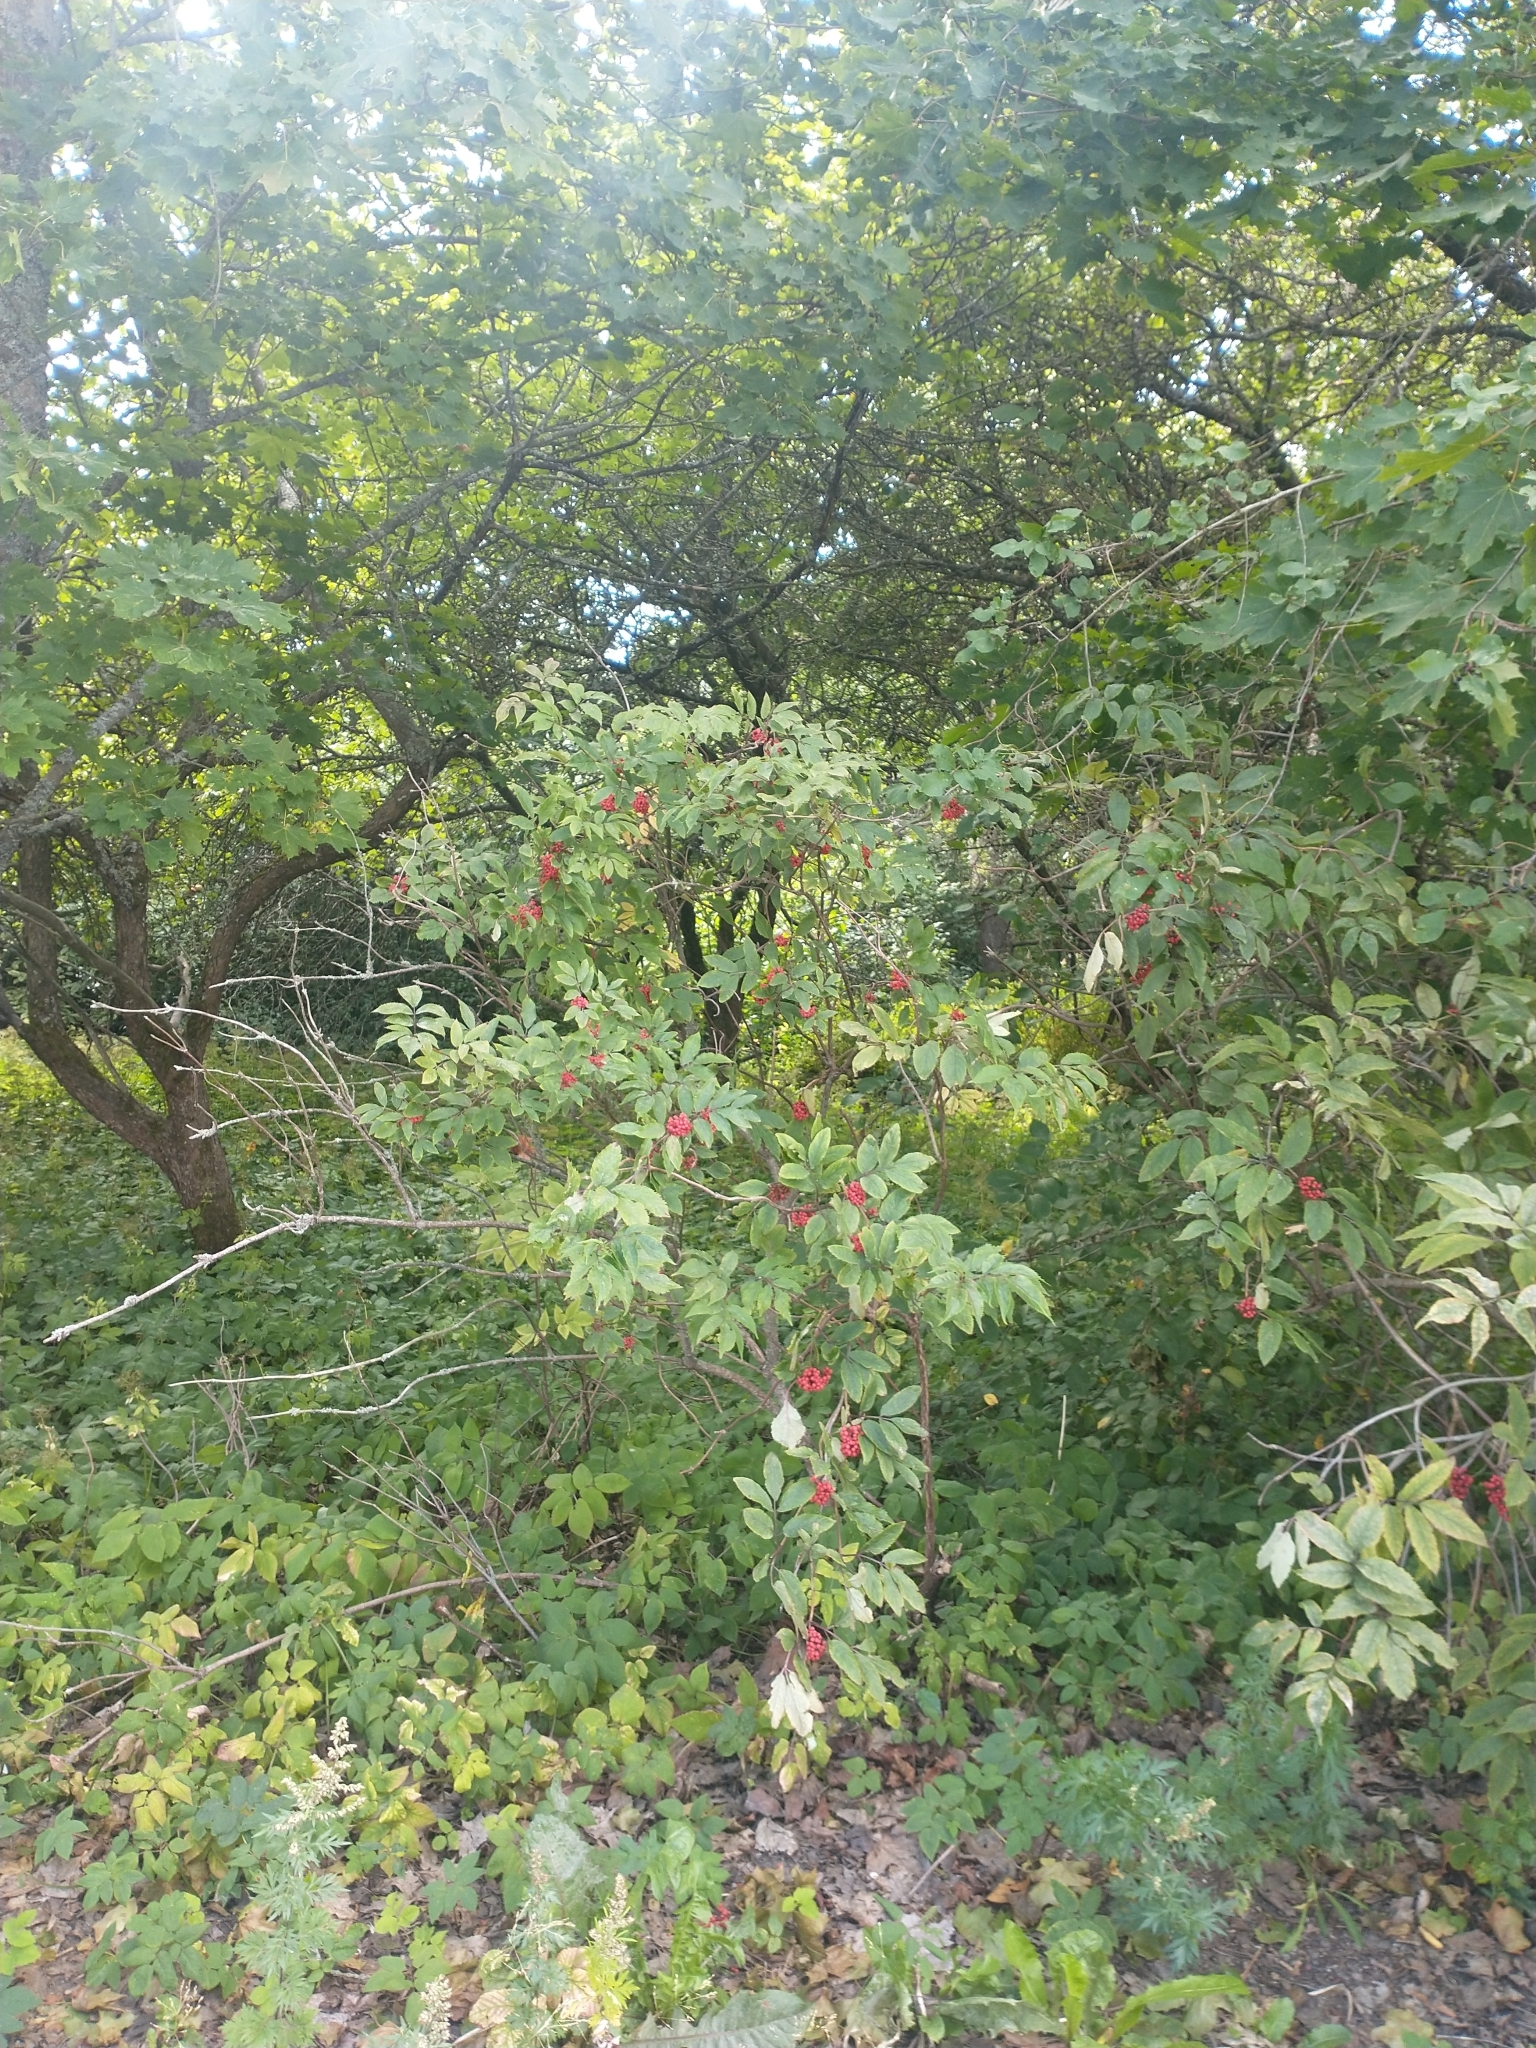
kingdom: Plantae
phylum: Tracheophyta
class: Magnoliopsida
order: Dipsacales
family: Viburnaceae
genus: Sambucus
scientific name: Sambucus racemosa
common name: Red-berried elder
